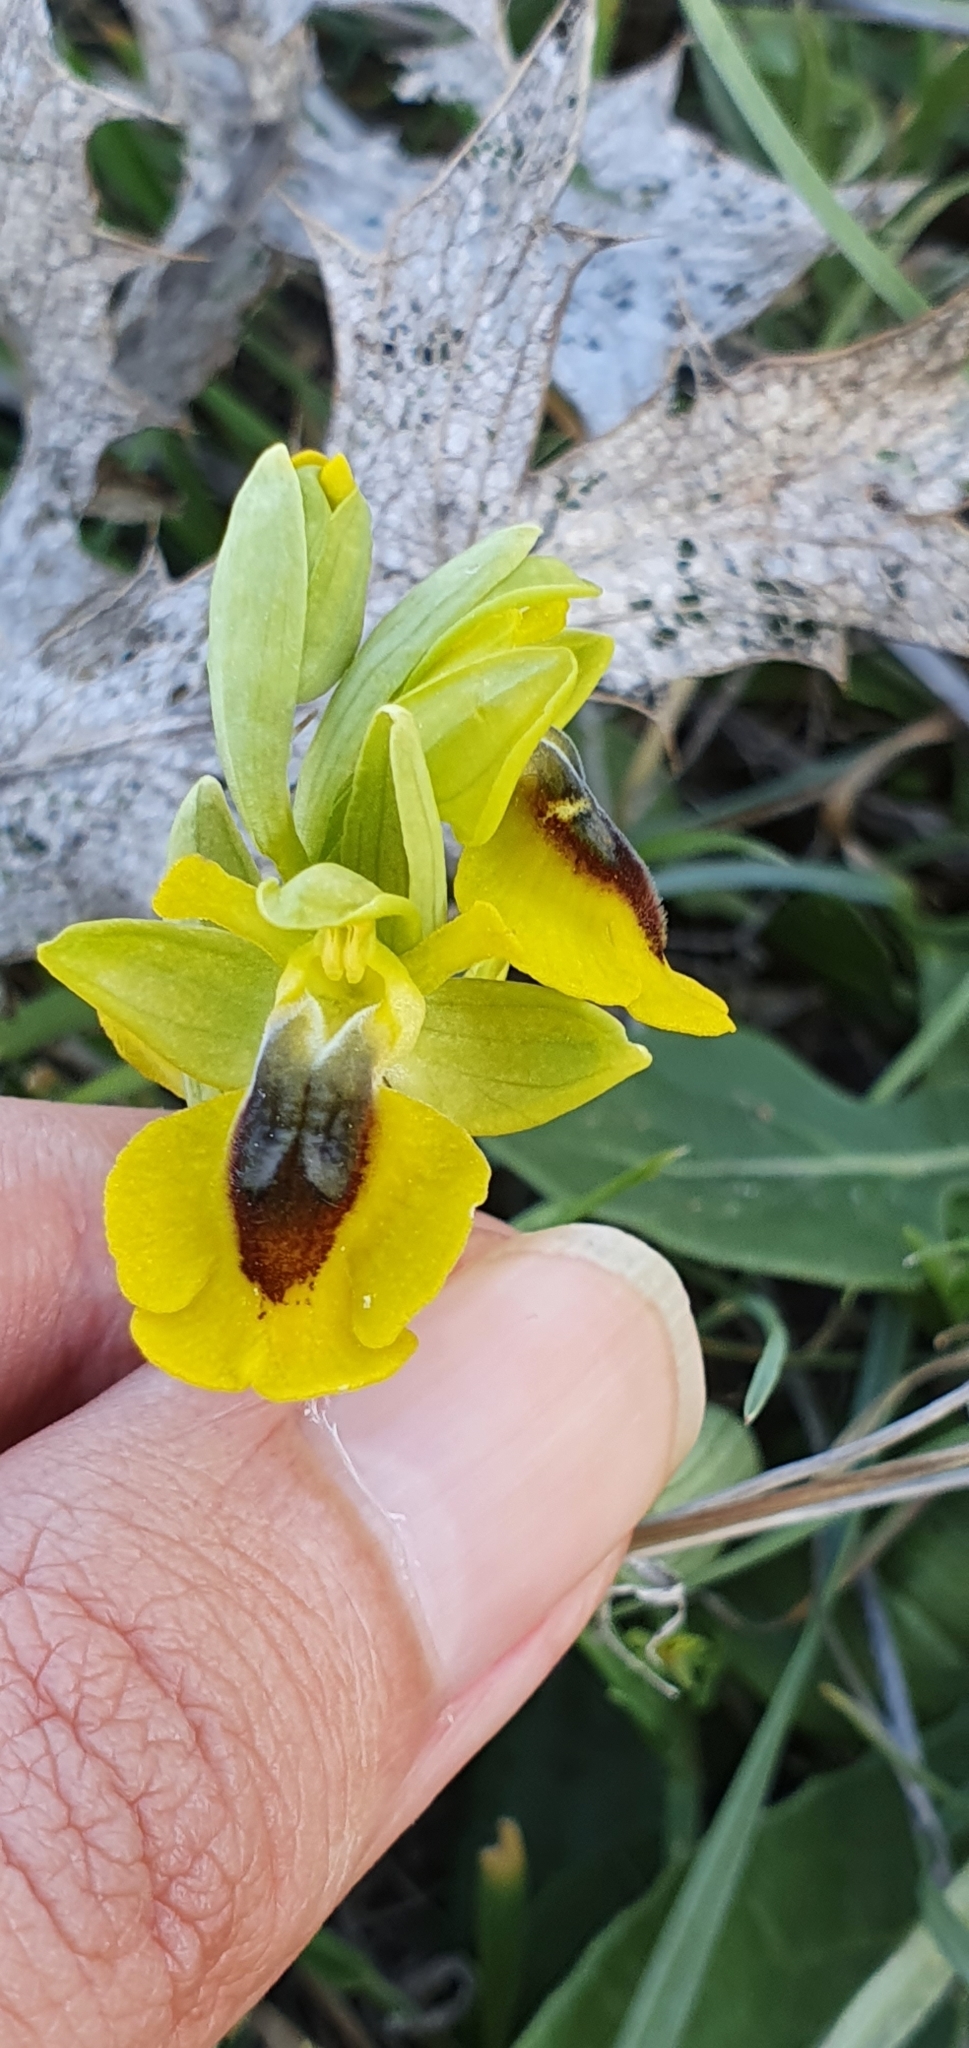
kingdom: Plantae
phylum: Tracheophyta
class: Liliopsida
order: Asparagales
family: Orchidaceae
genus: Ophrys
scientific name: Ophrys lutea
